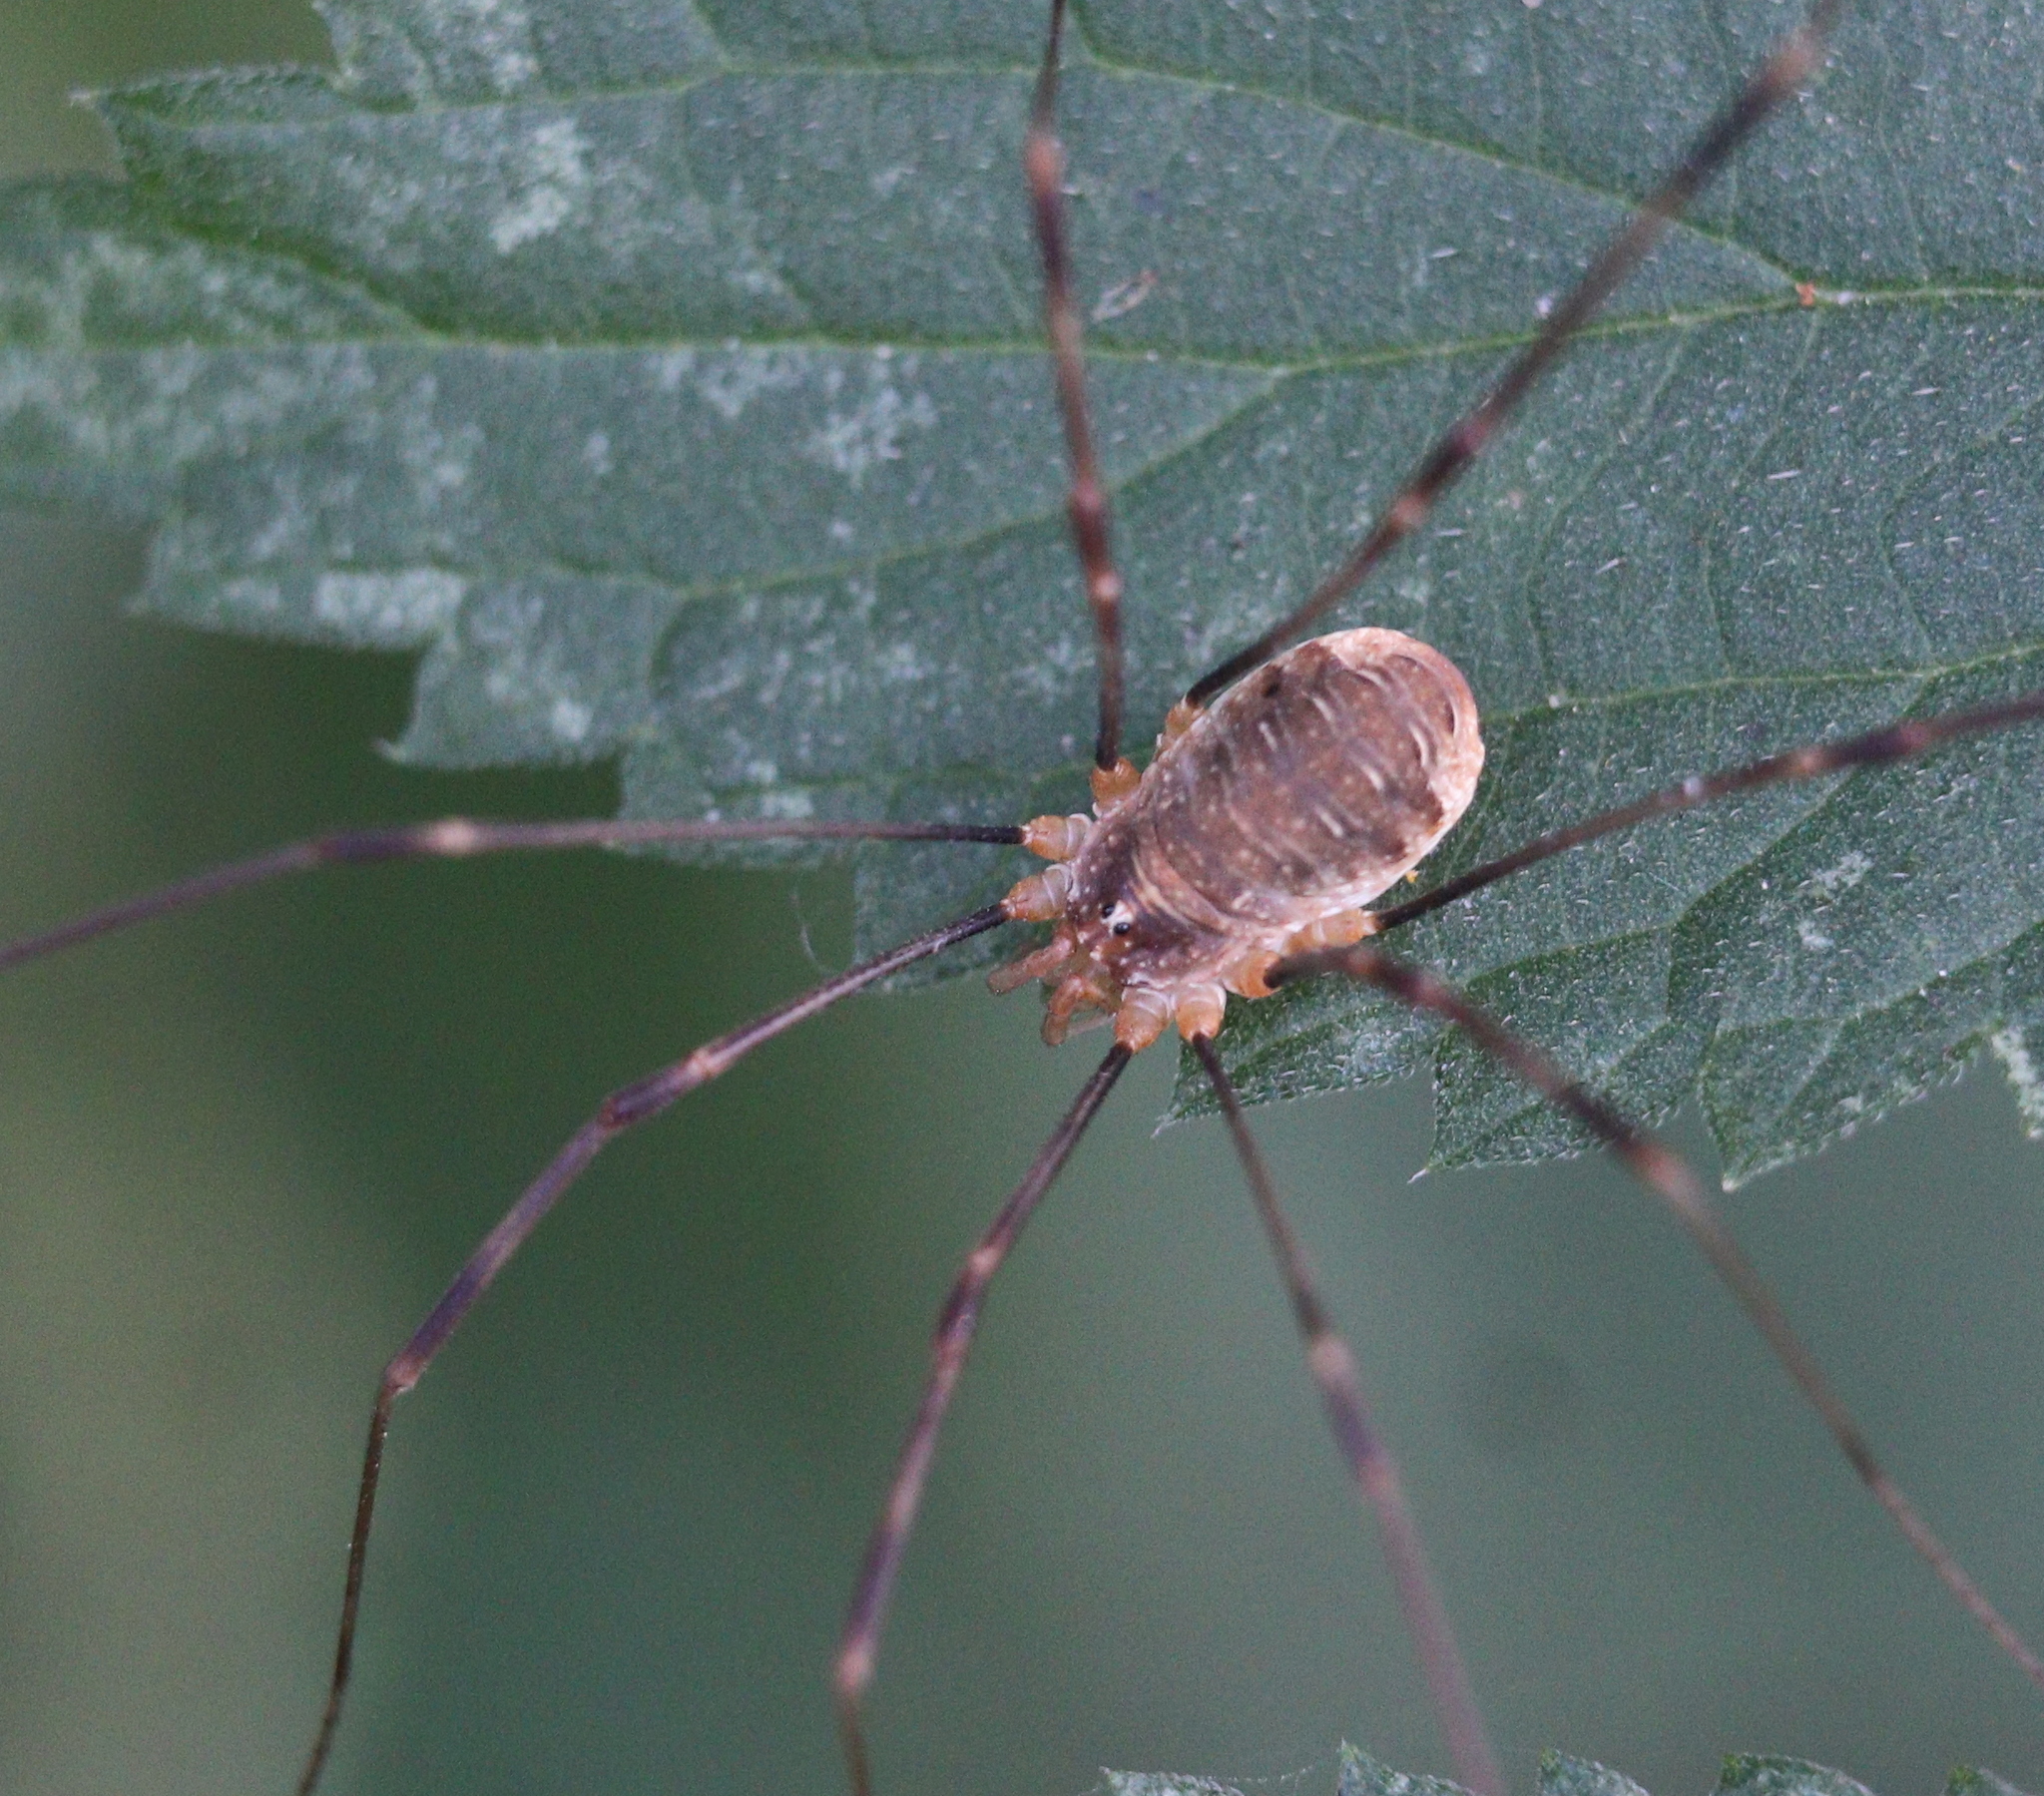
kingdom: Animalia
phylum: Arthropoda
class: Arachnida
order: Opiliones
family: Phalangiidae
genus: Opilio
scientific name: Opilio canestrinii
